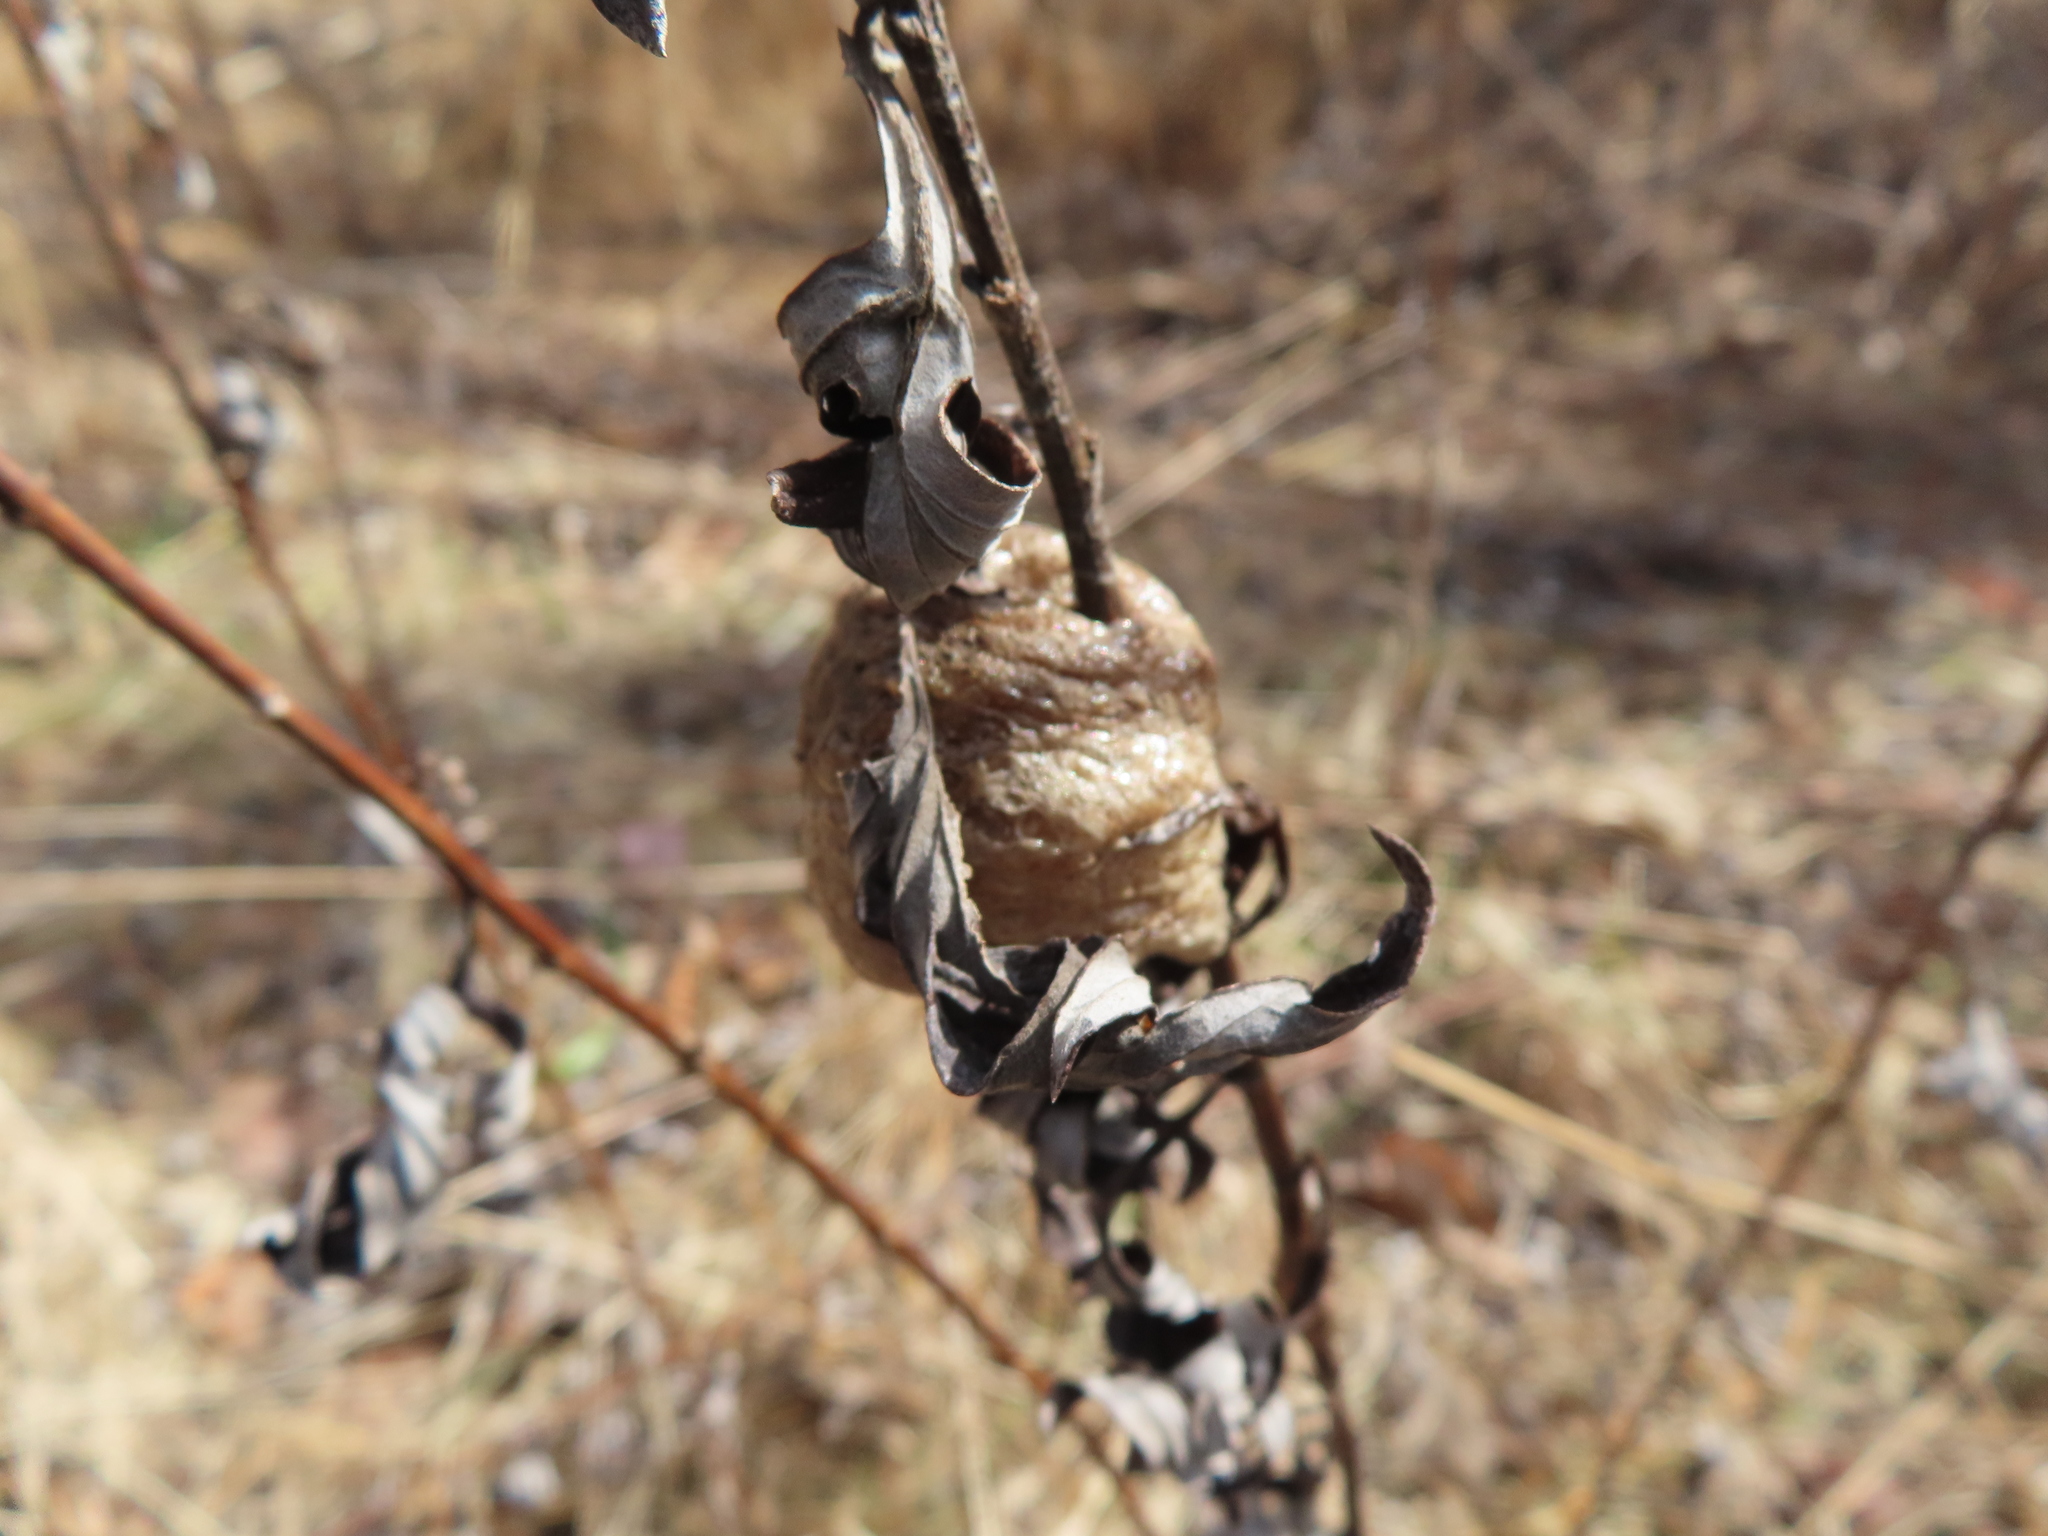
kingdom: Animalia
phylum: Arthropoda
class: Insecta
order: Mantodea
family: Mantidae
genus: Tenodera
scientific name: Tenodera sinensis
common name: Chinese mantis
